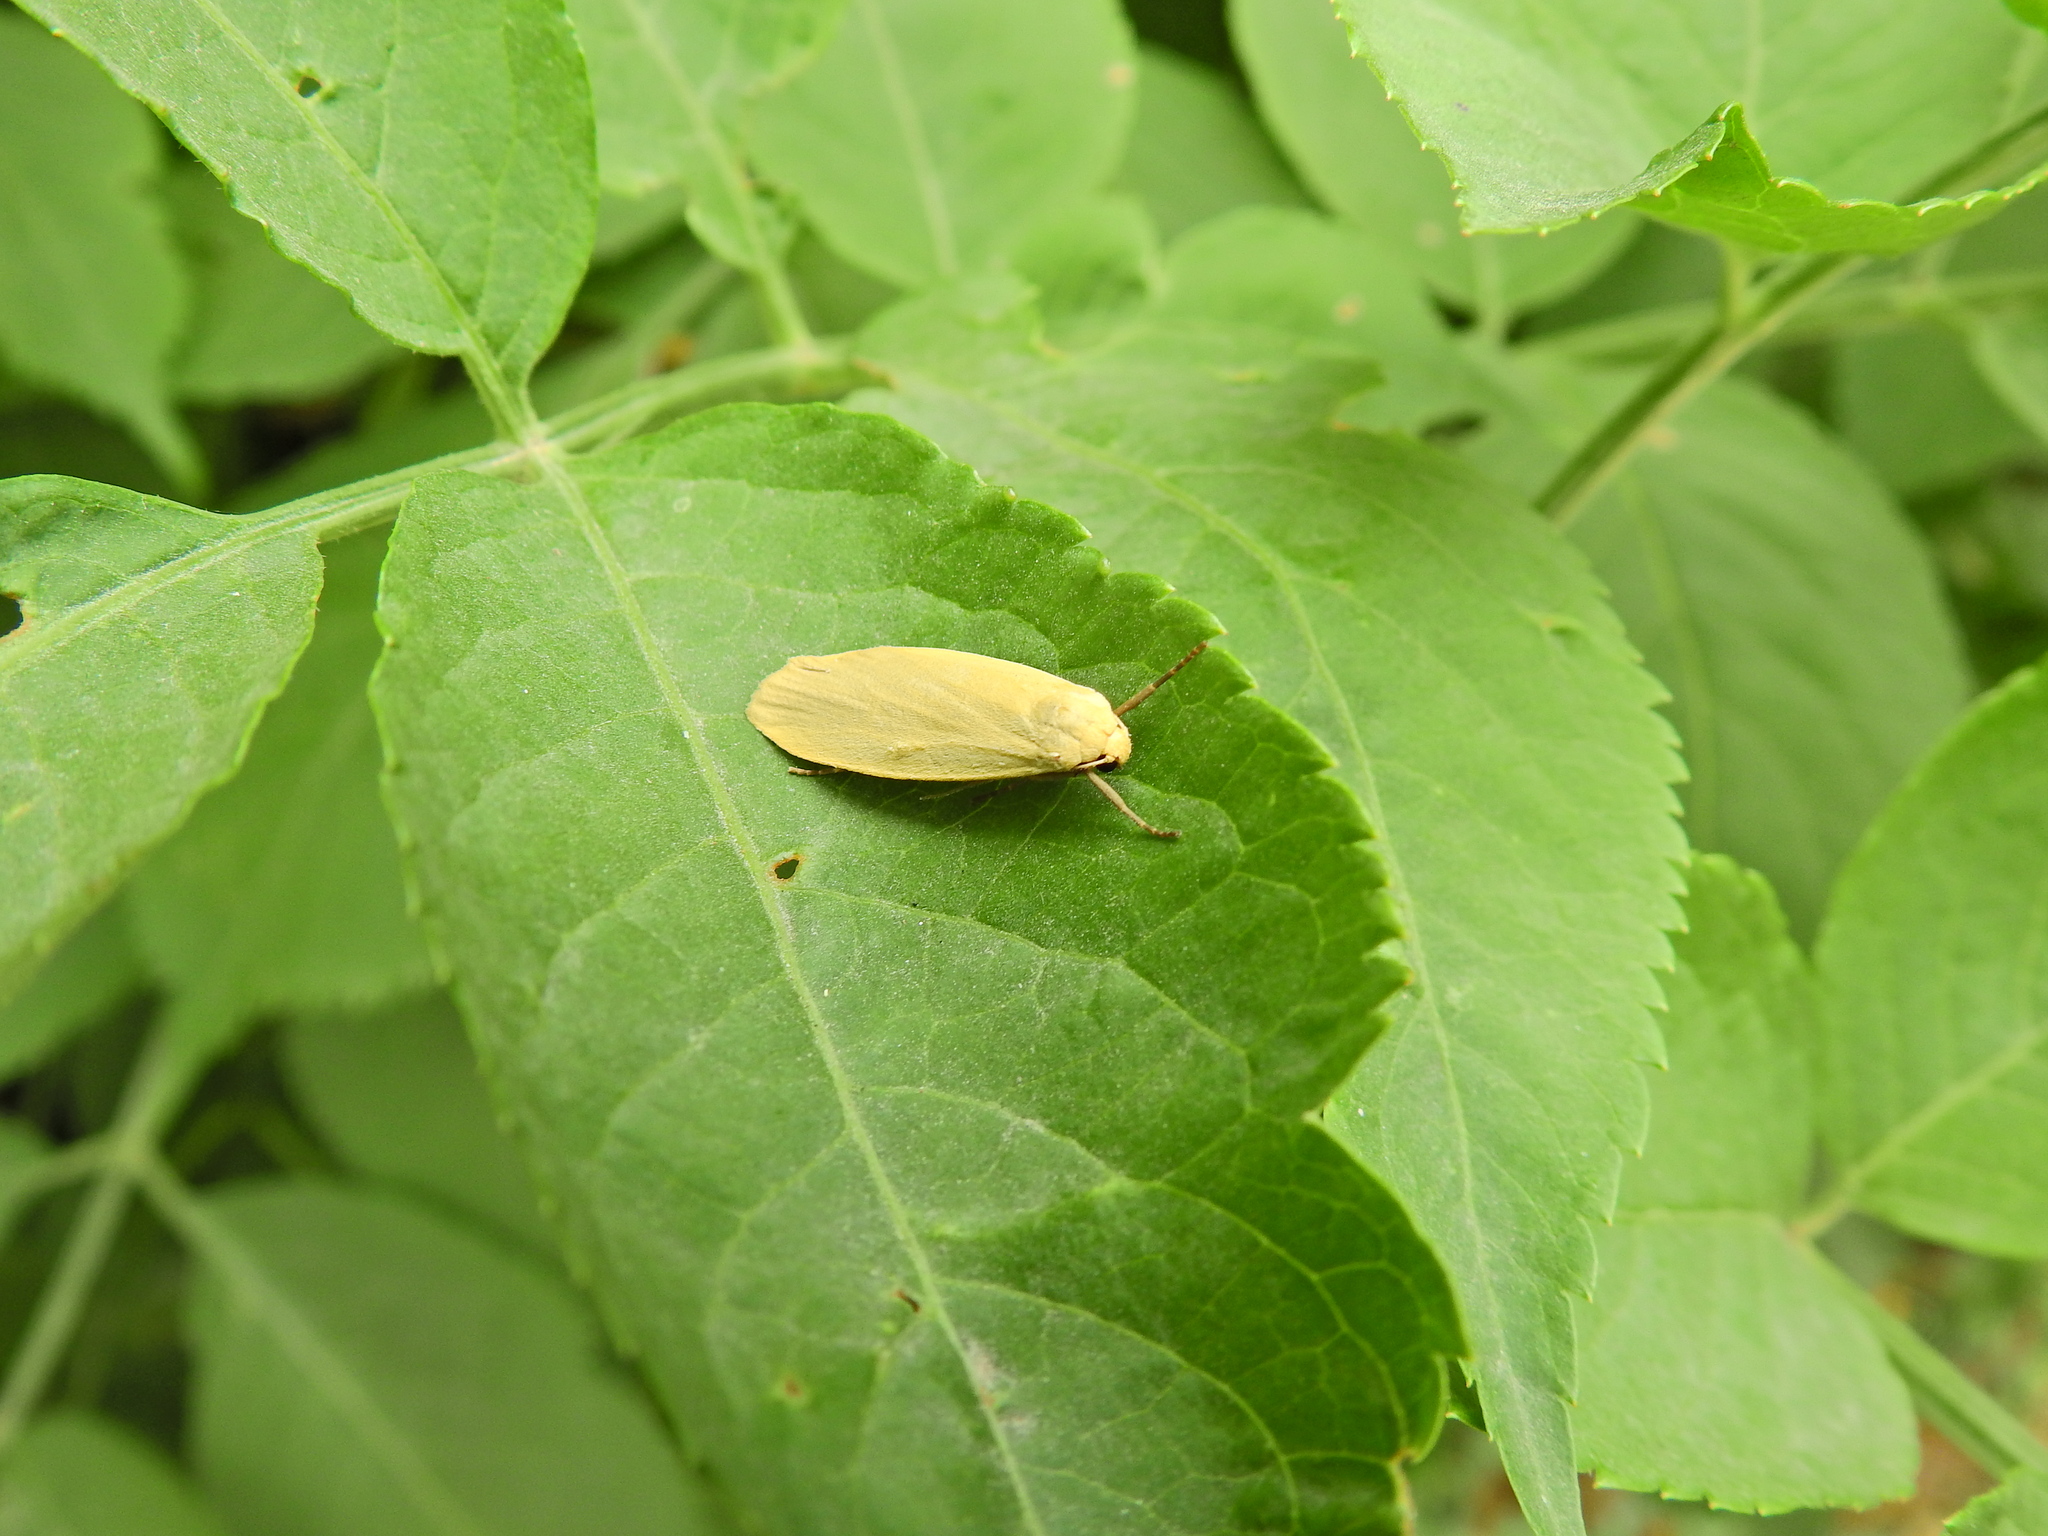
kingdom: Animalia
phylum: Arthropoda
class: Insecta
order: Lepidoptera
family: Erebidae
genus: Collita
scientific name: Collita griseola
